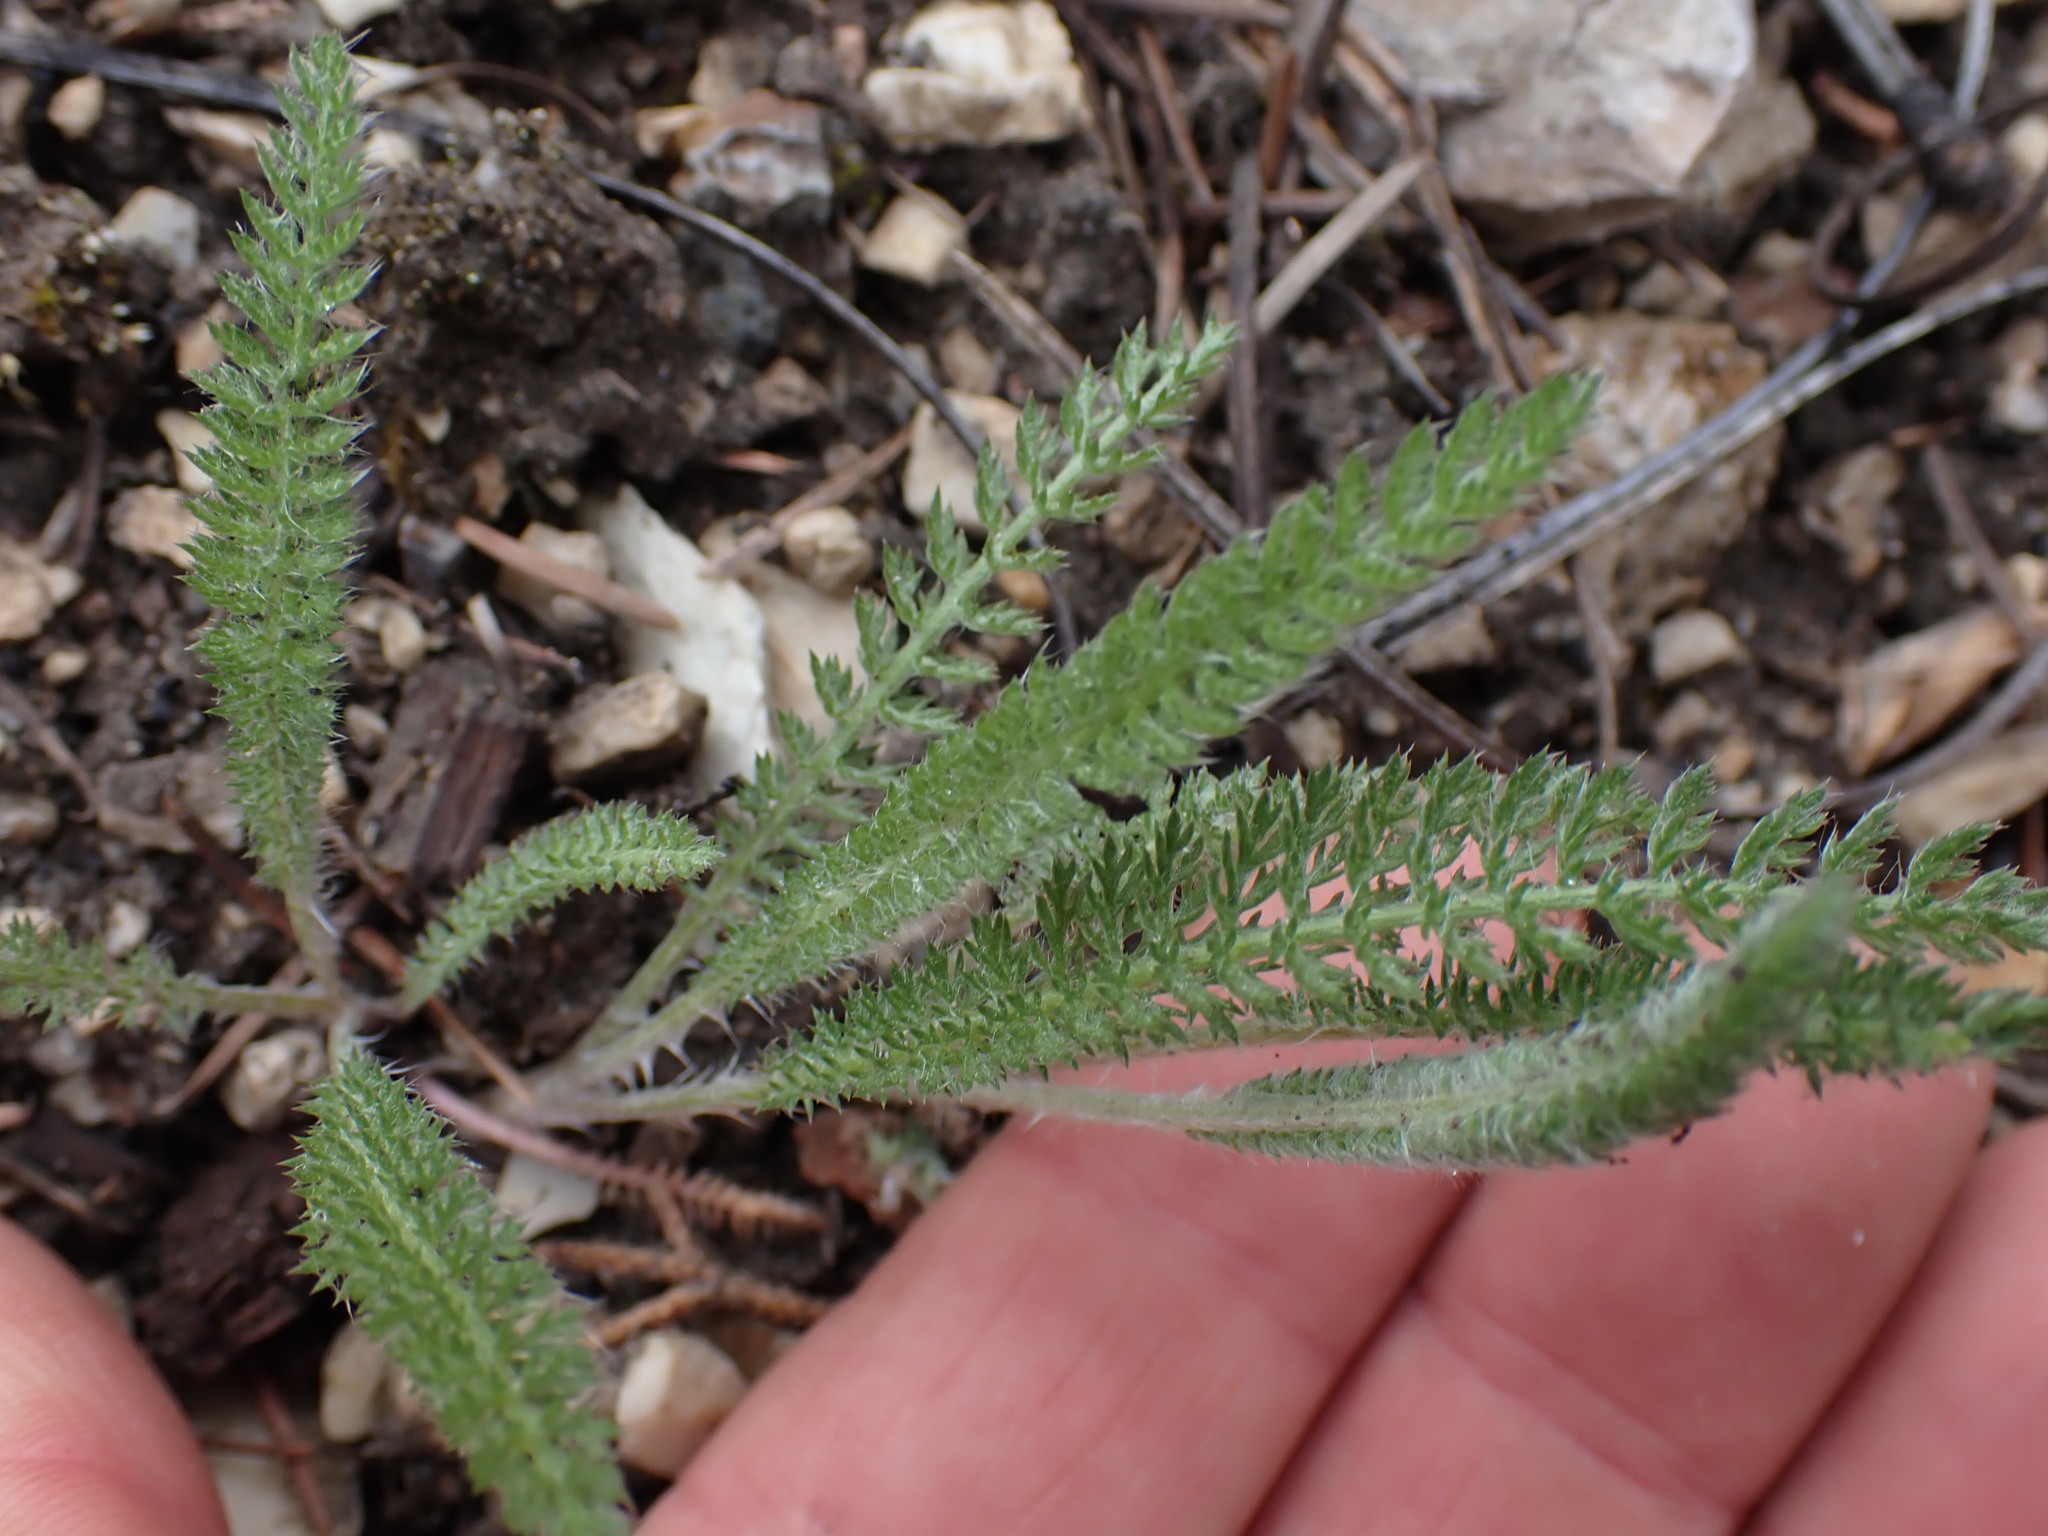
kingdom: Plantae
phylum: Tracheophyta
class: Magnoliopsida
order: Asterales
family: Asteraceae
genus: Achillea
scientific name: Achillea millefolium
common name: Yarrow
